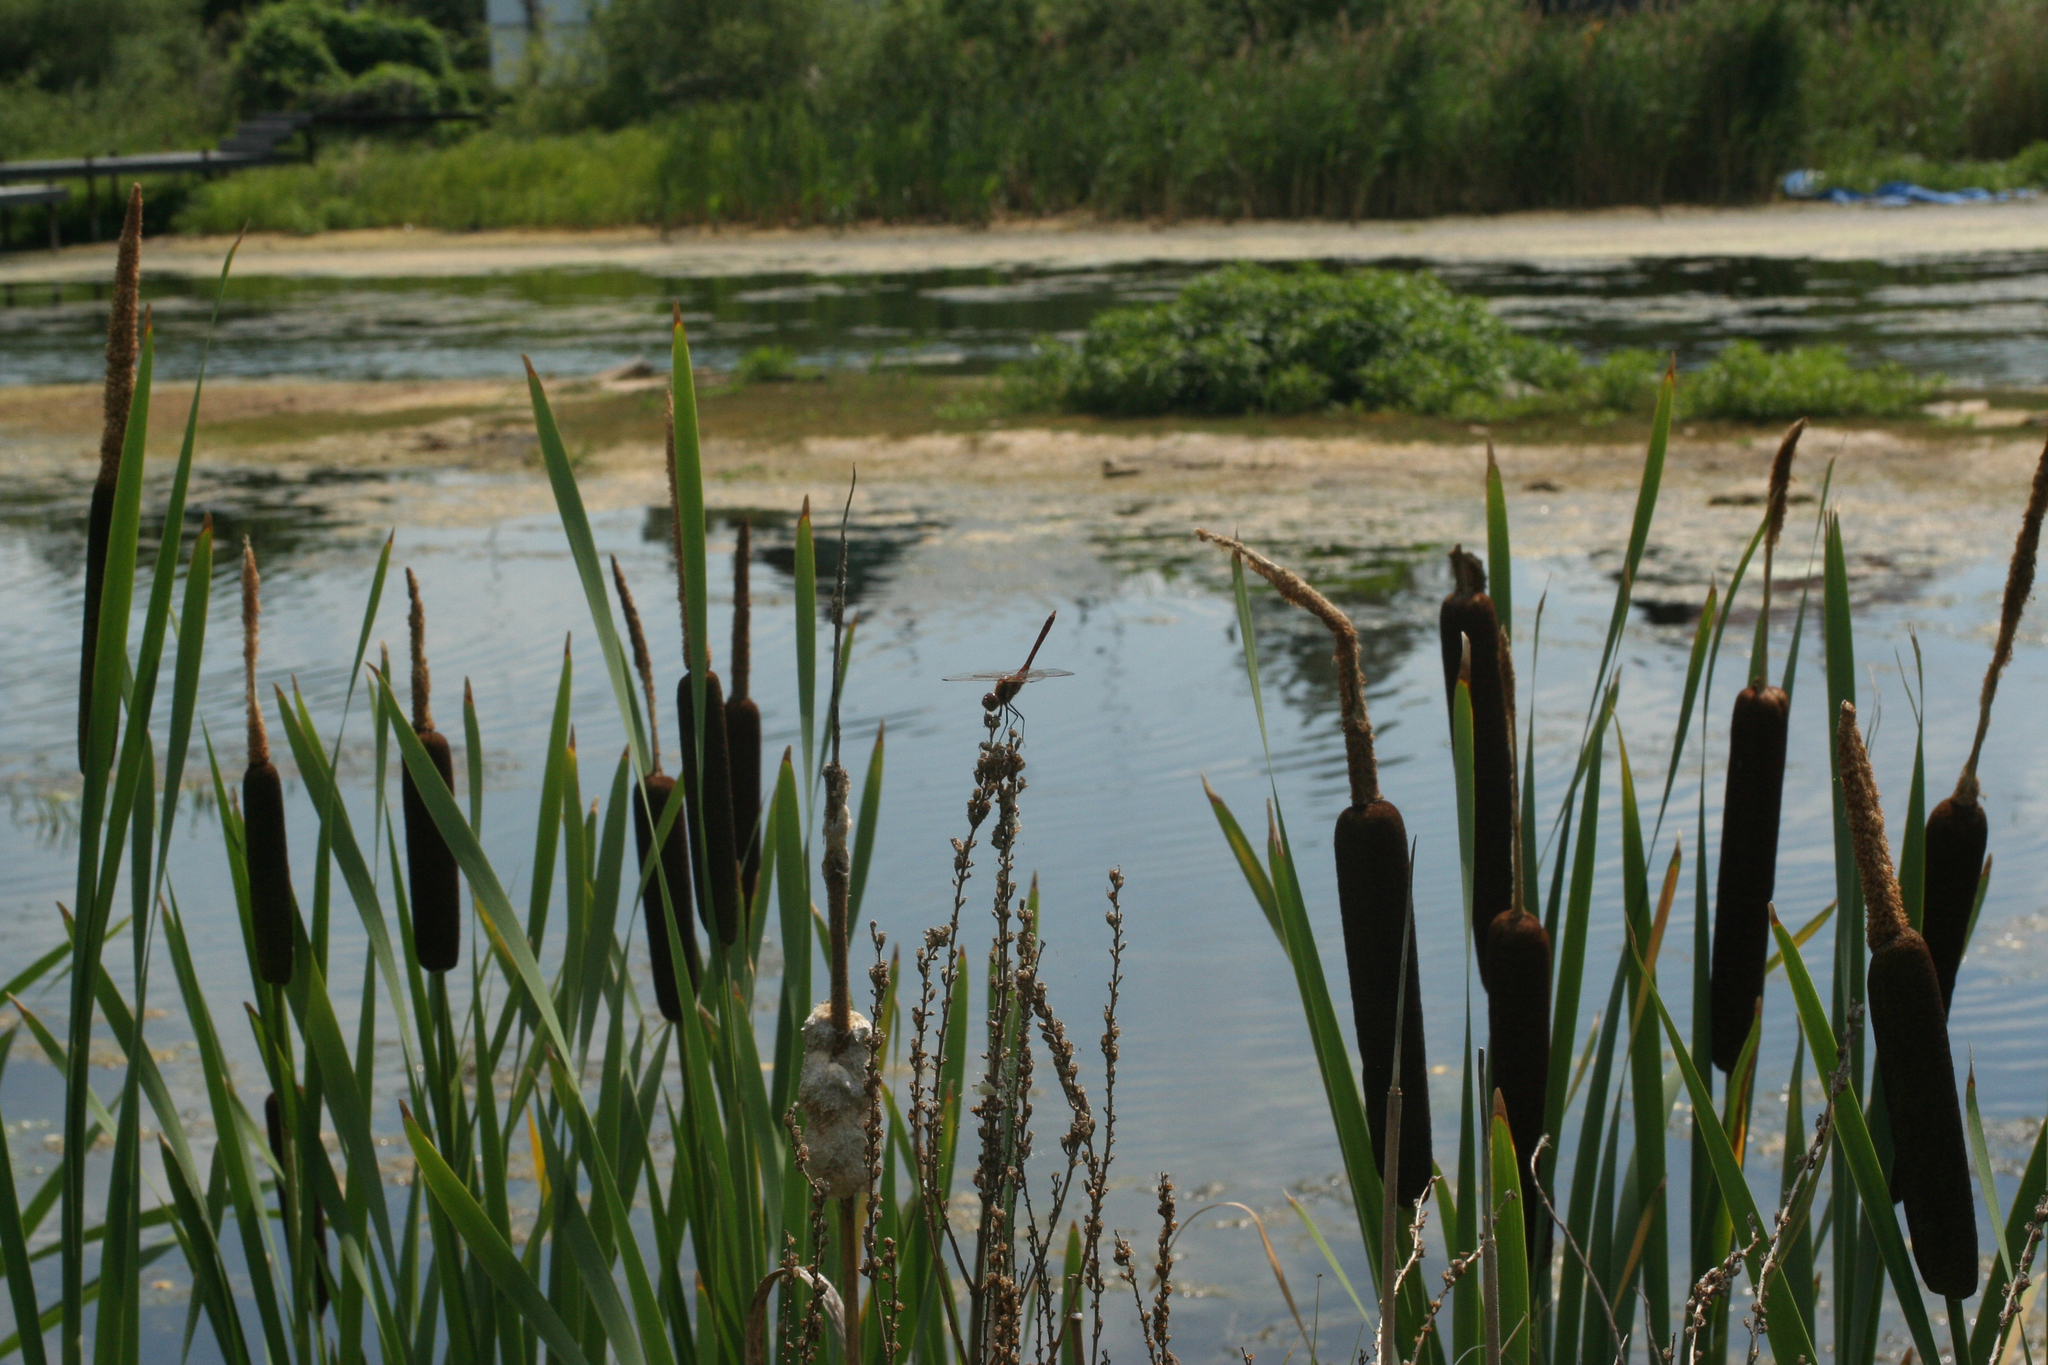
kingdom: Plantae
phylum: Tracheophyta
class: Liliopsida
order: Poales
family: Typhaceae
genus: Typha
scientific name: Typha latifolia
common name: Broadleaf cattail
